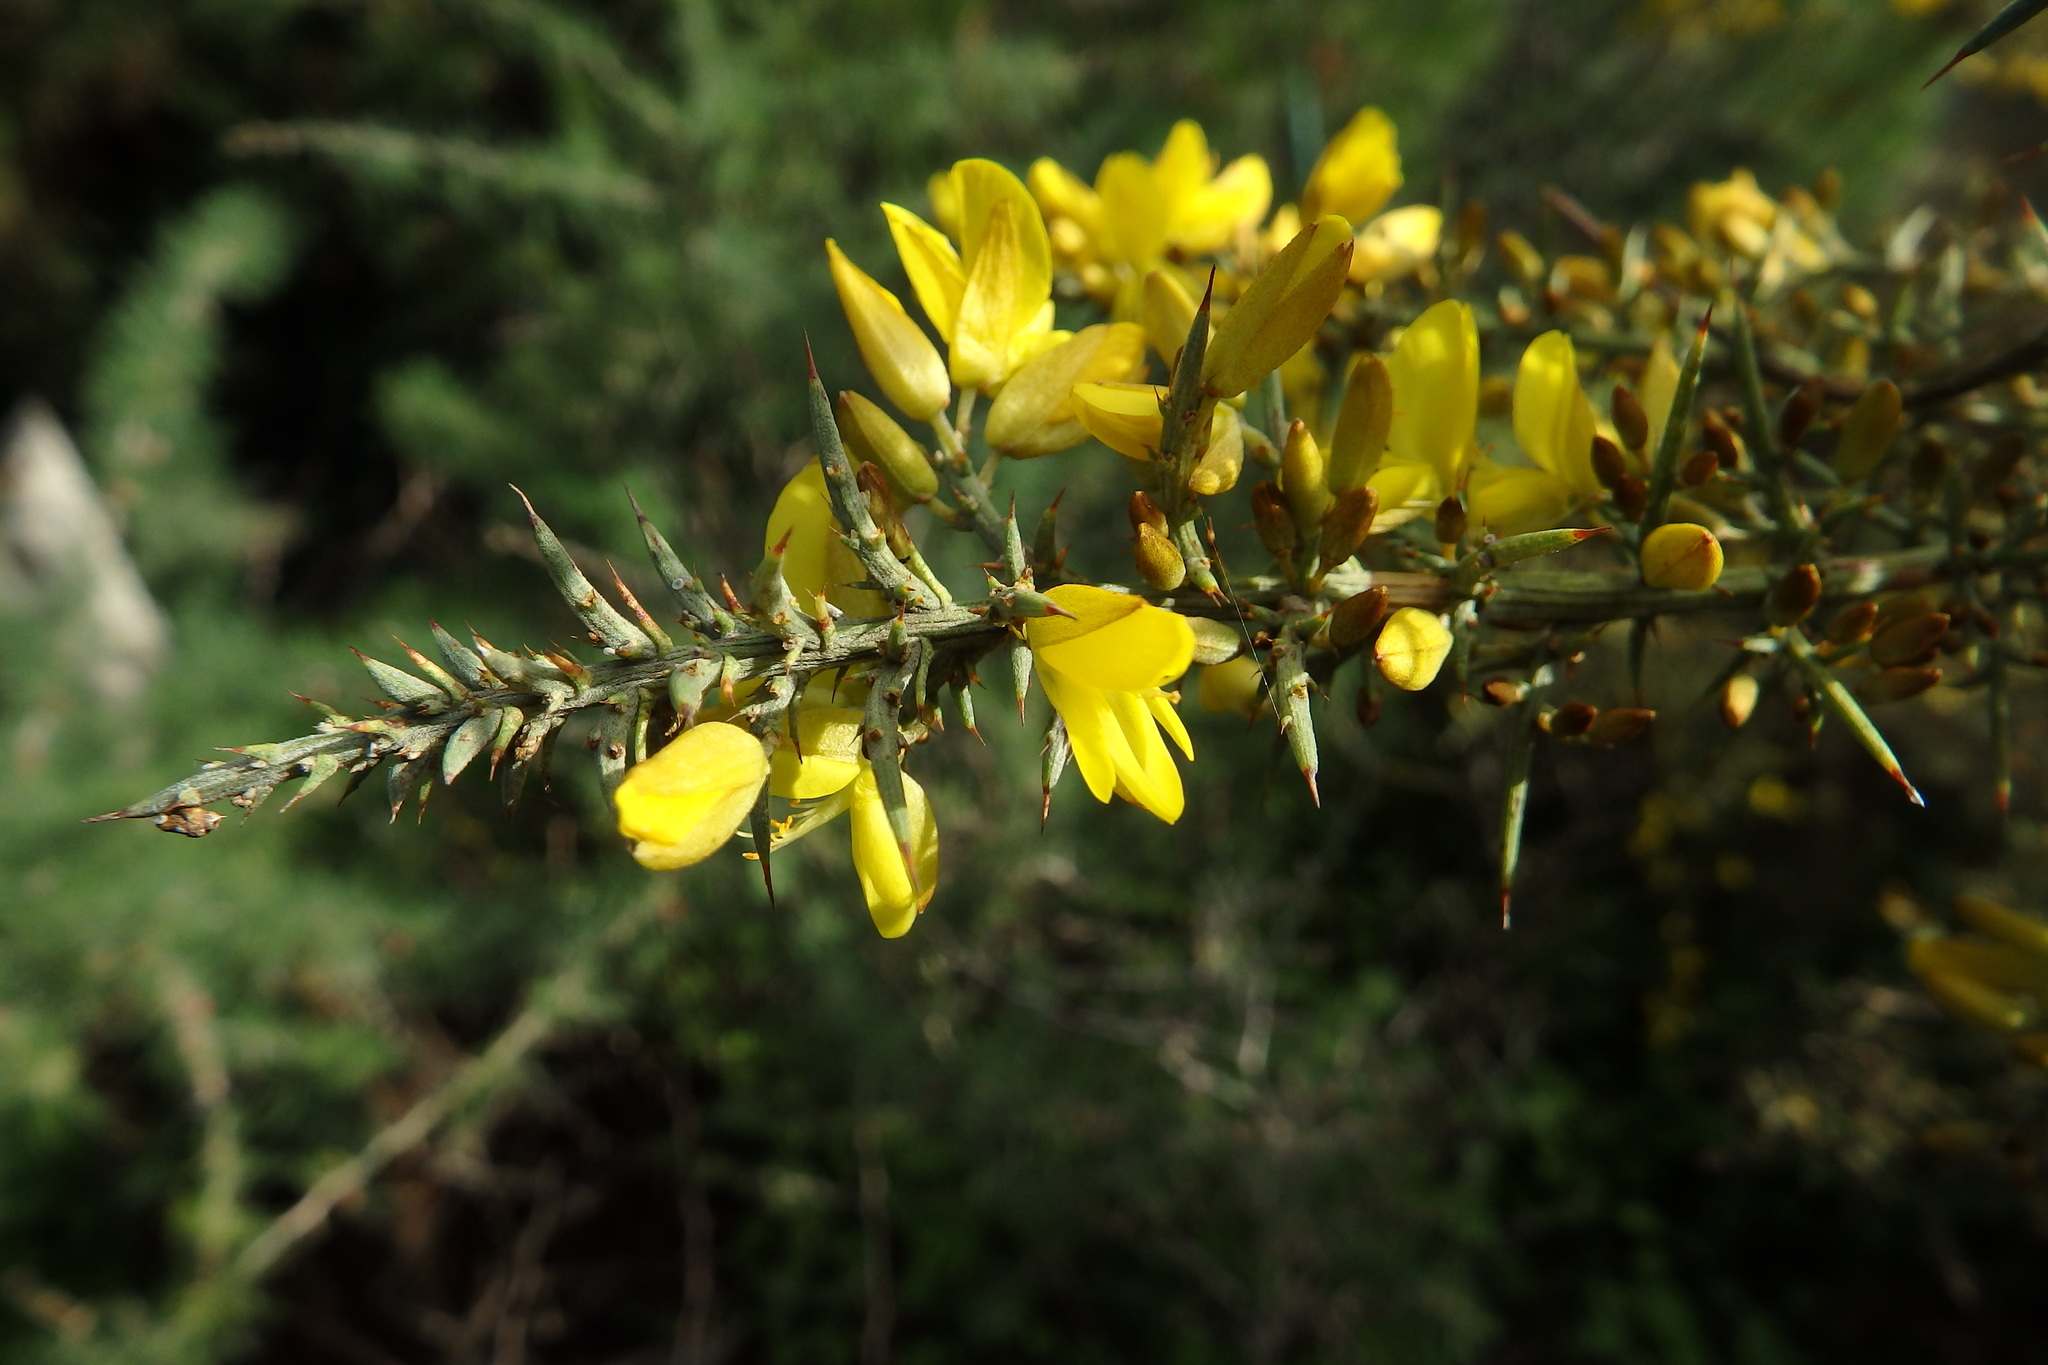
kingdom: Plantae
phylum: Tracheophyta
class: Magnoliopsida
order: Fabales
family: Fabaceae
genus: Ulex
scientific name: Ulex argenteus
